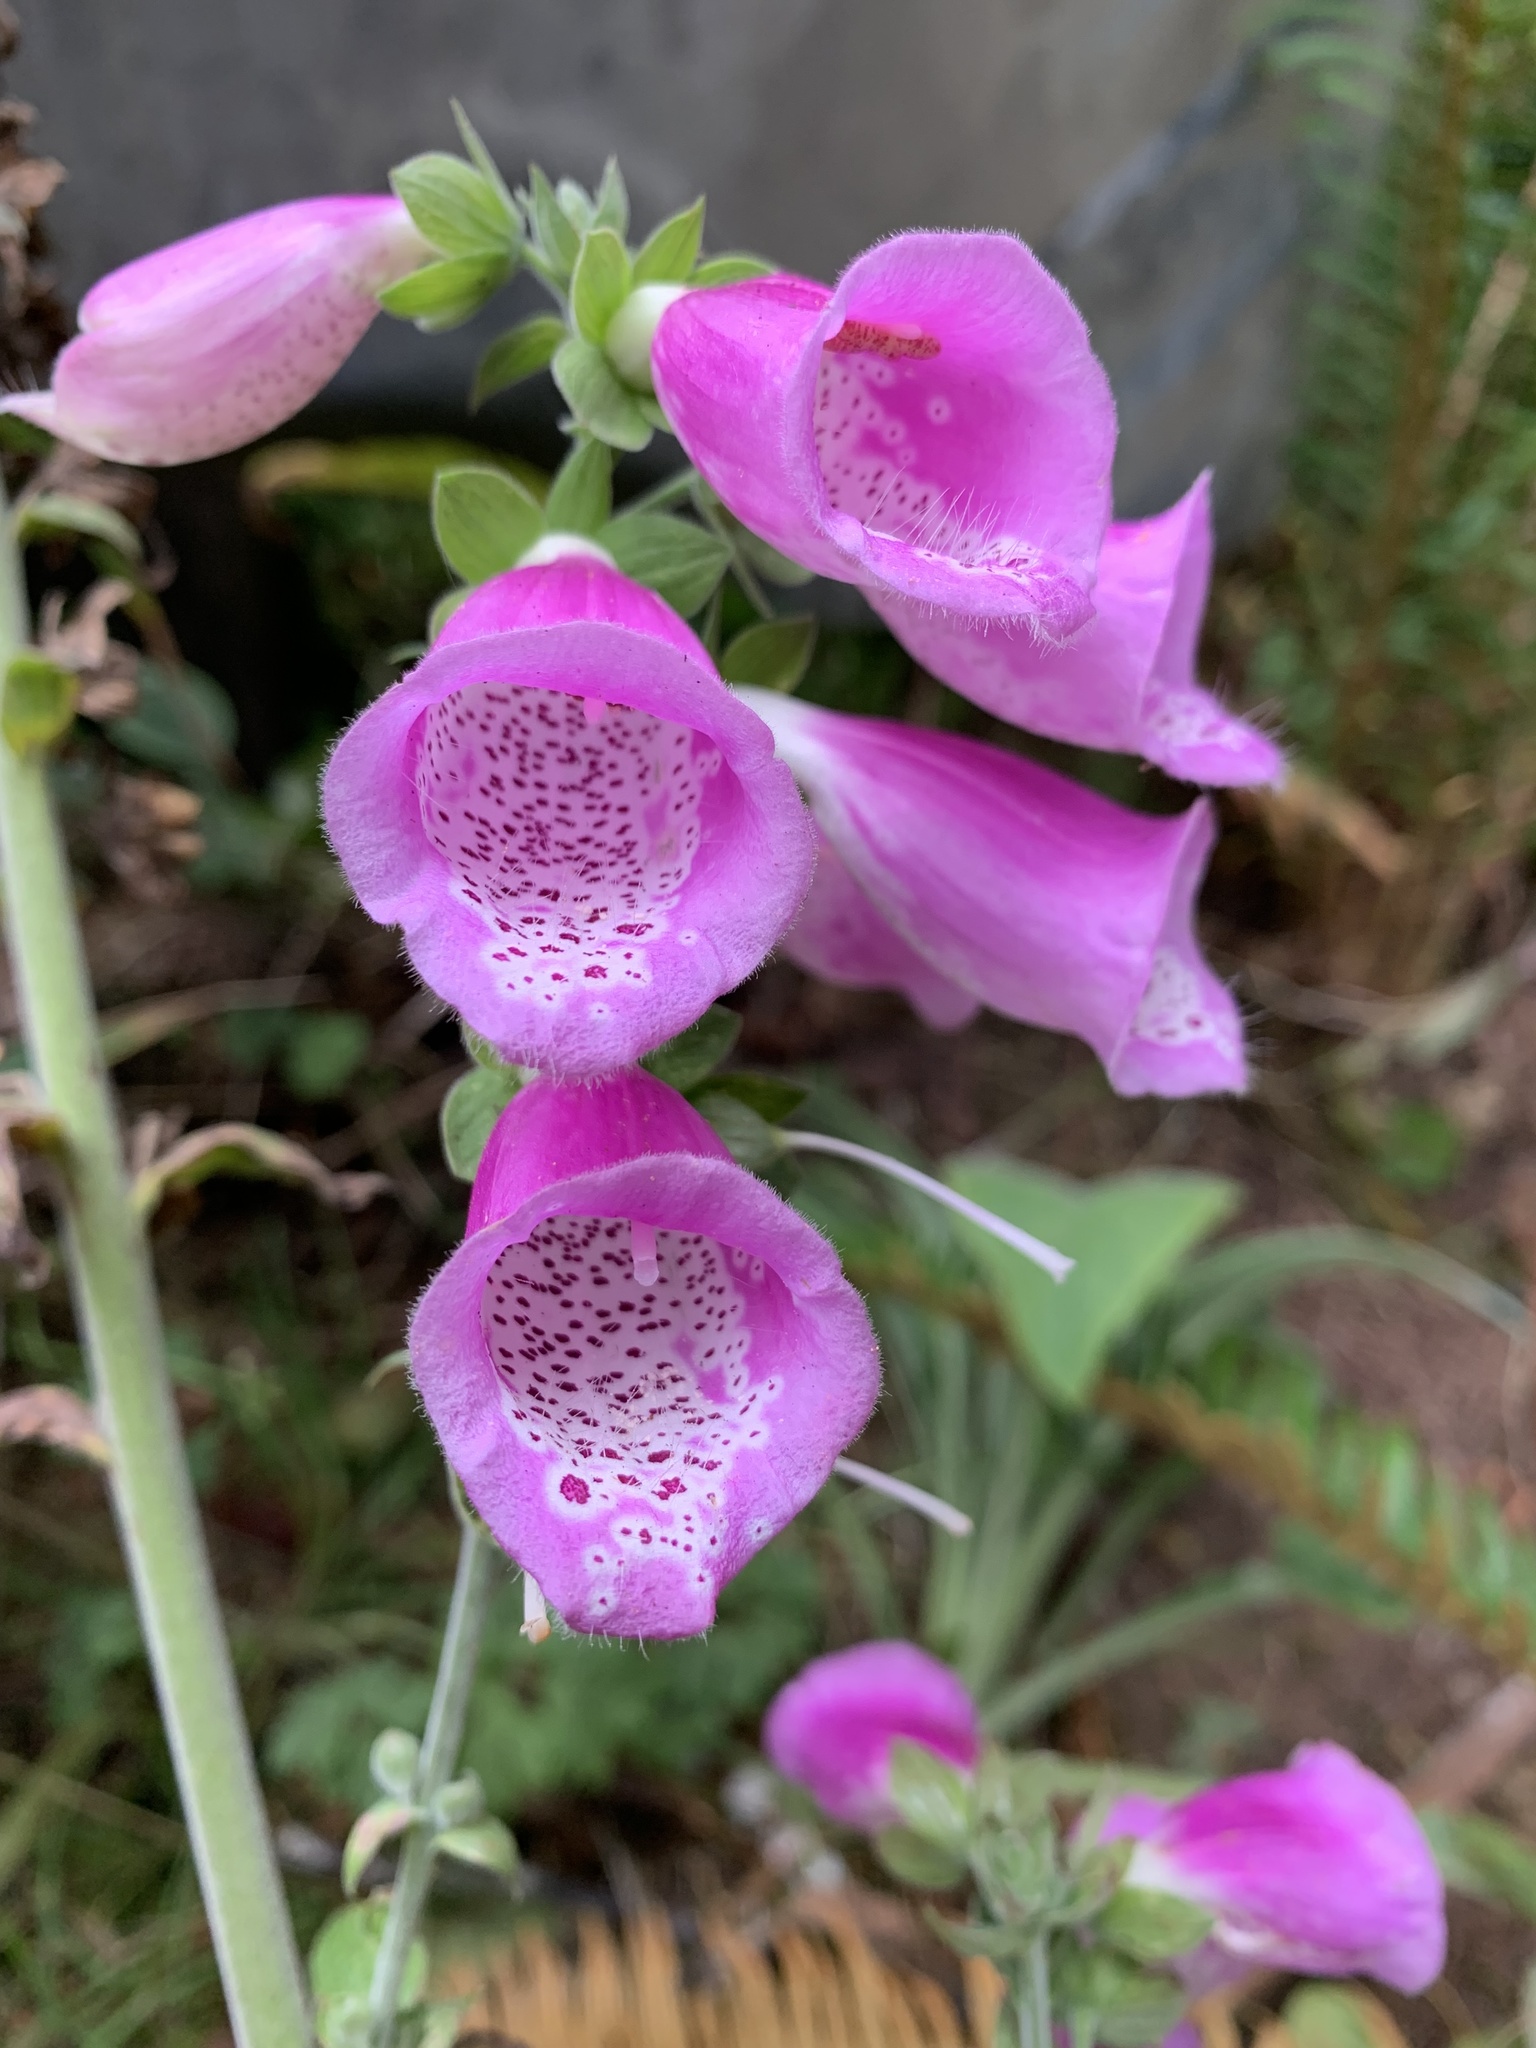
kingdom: Plantae
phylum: Tracheophyta
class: Magnoliopsida
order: Lamiales
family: Plantaginaceae
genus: Digitalis
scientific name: Digitalis purpurea
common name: Foxglove
